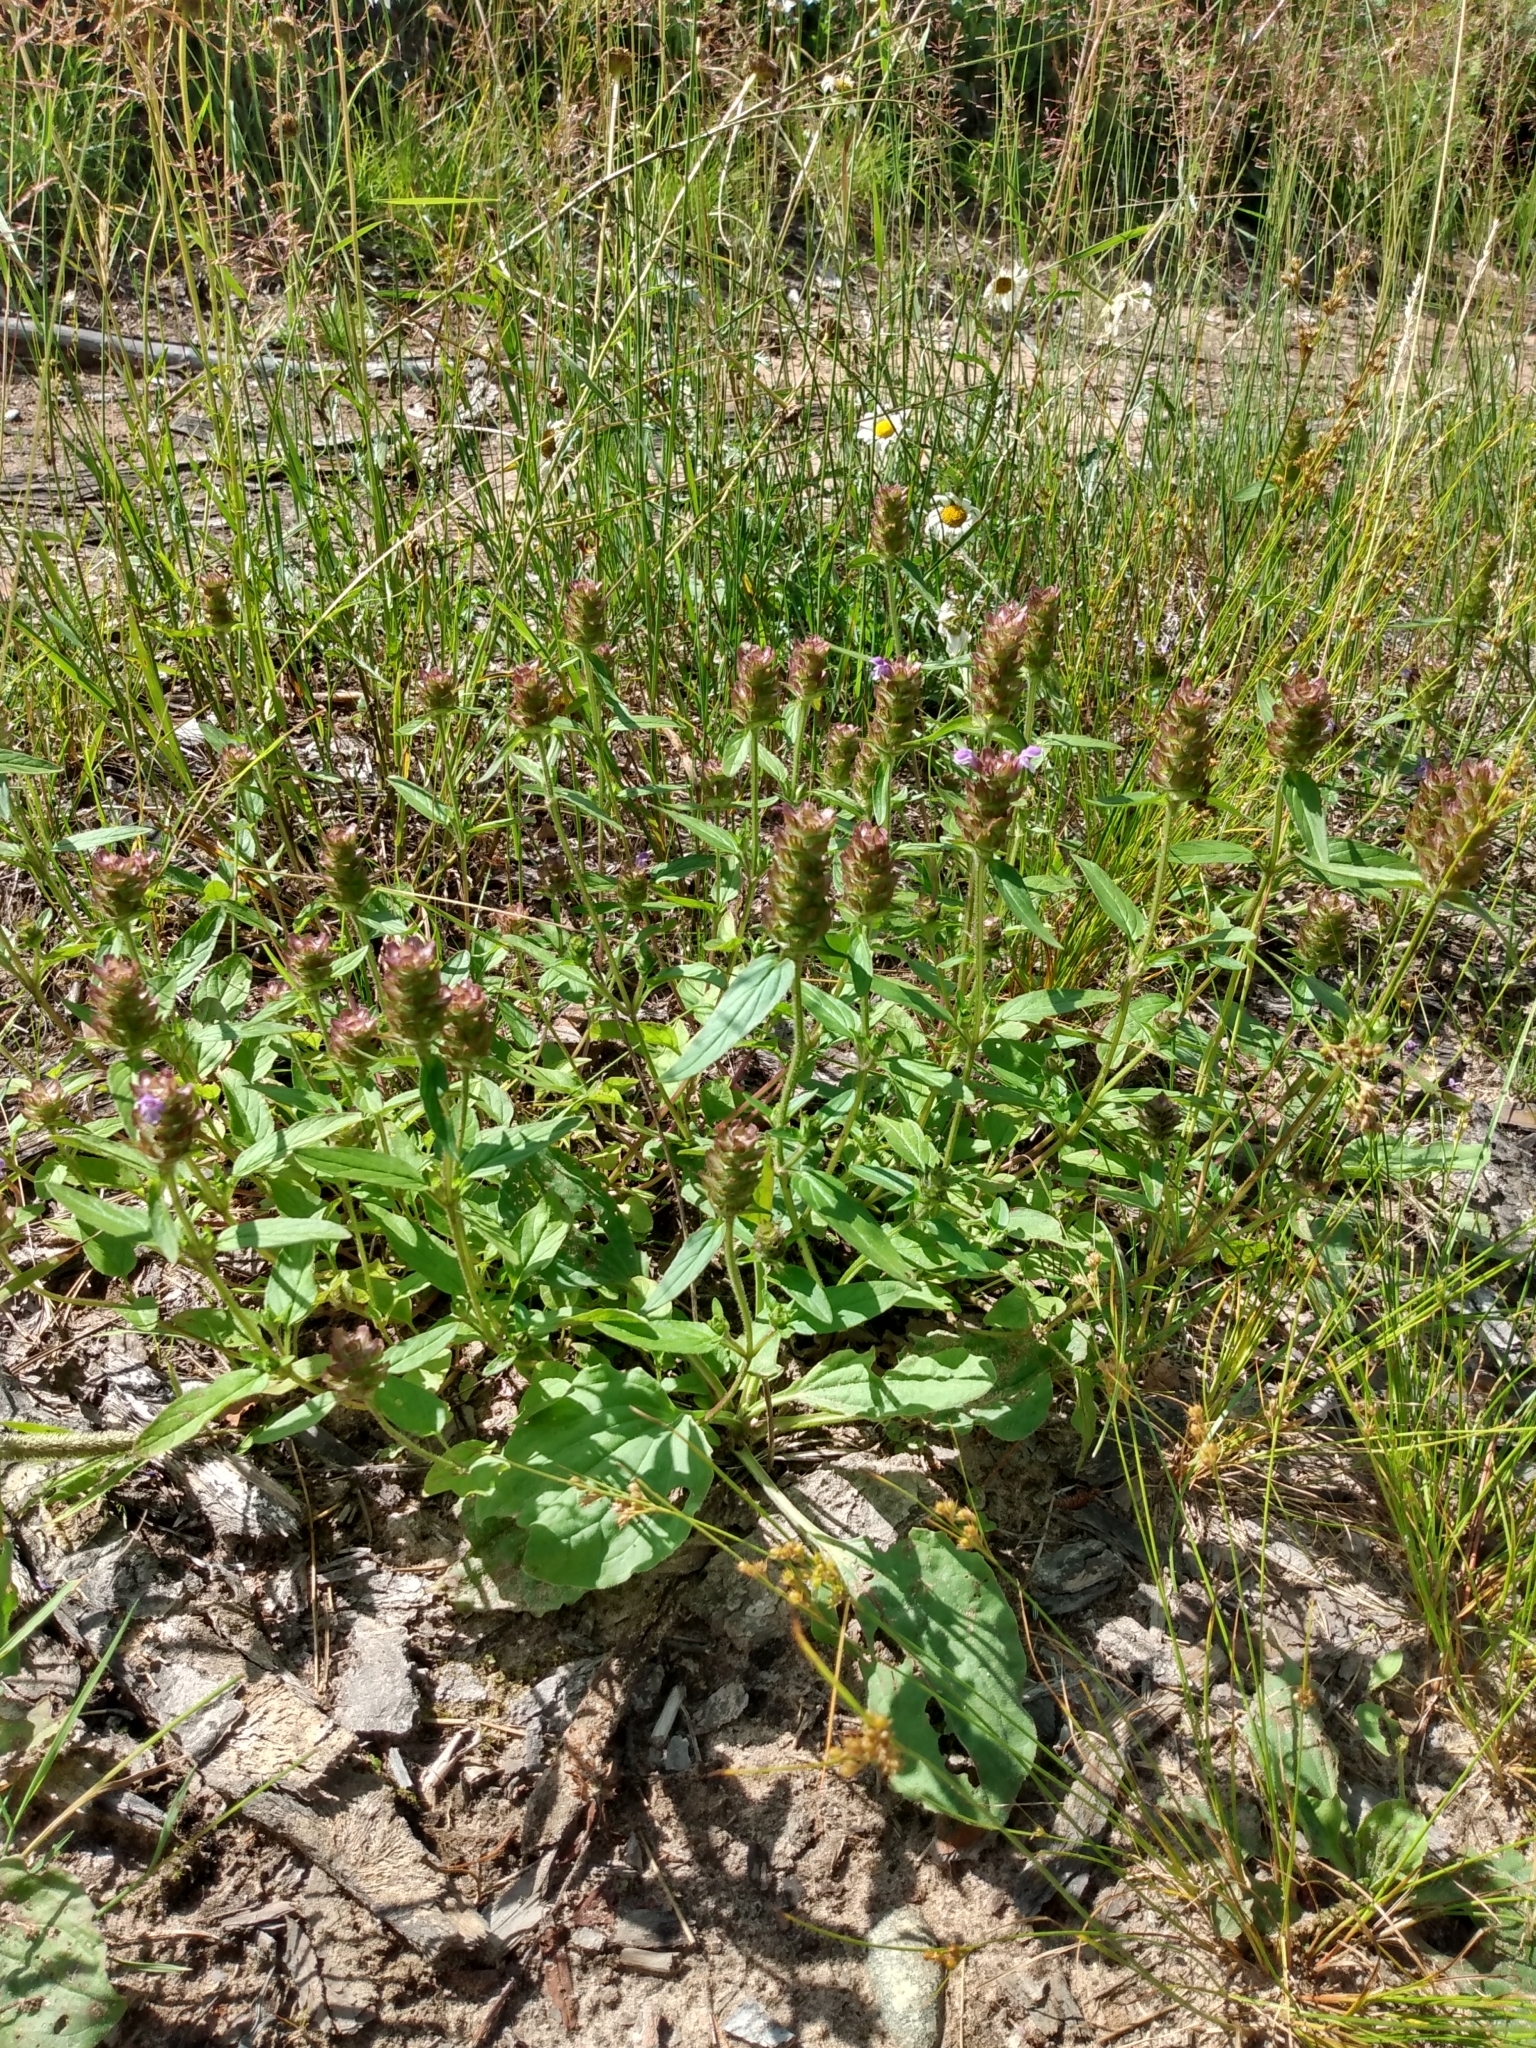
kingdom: Plantae
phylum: Tracheophyta
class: Magnoliopsida
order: Lamiales
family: Lamiaceae
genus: Prunella
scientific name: Prunella vulgaris
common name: Heal-all
